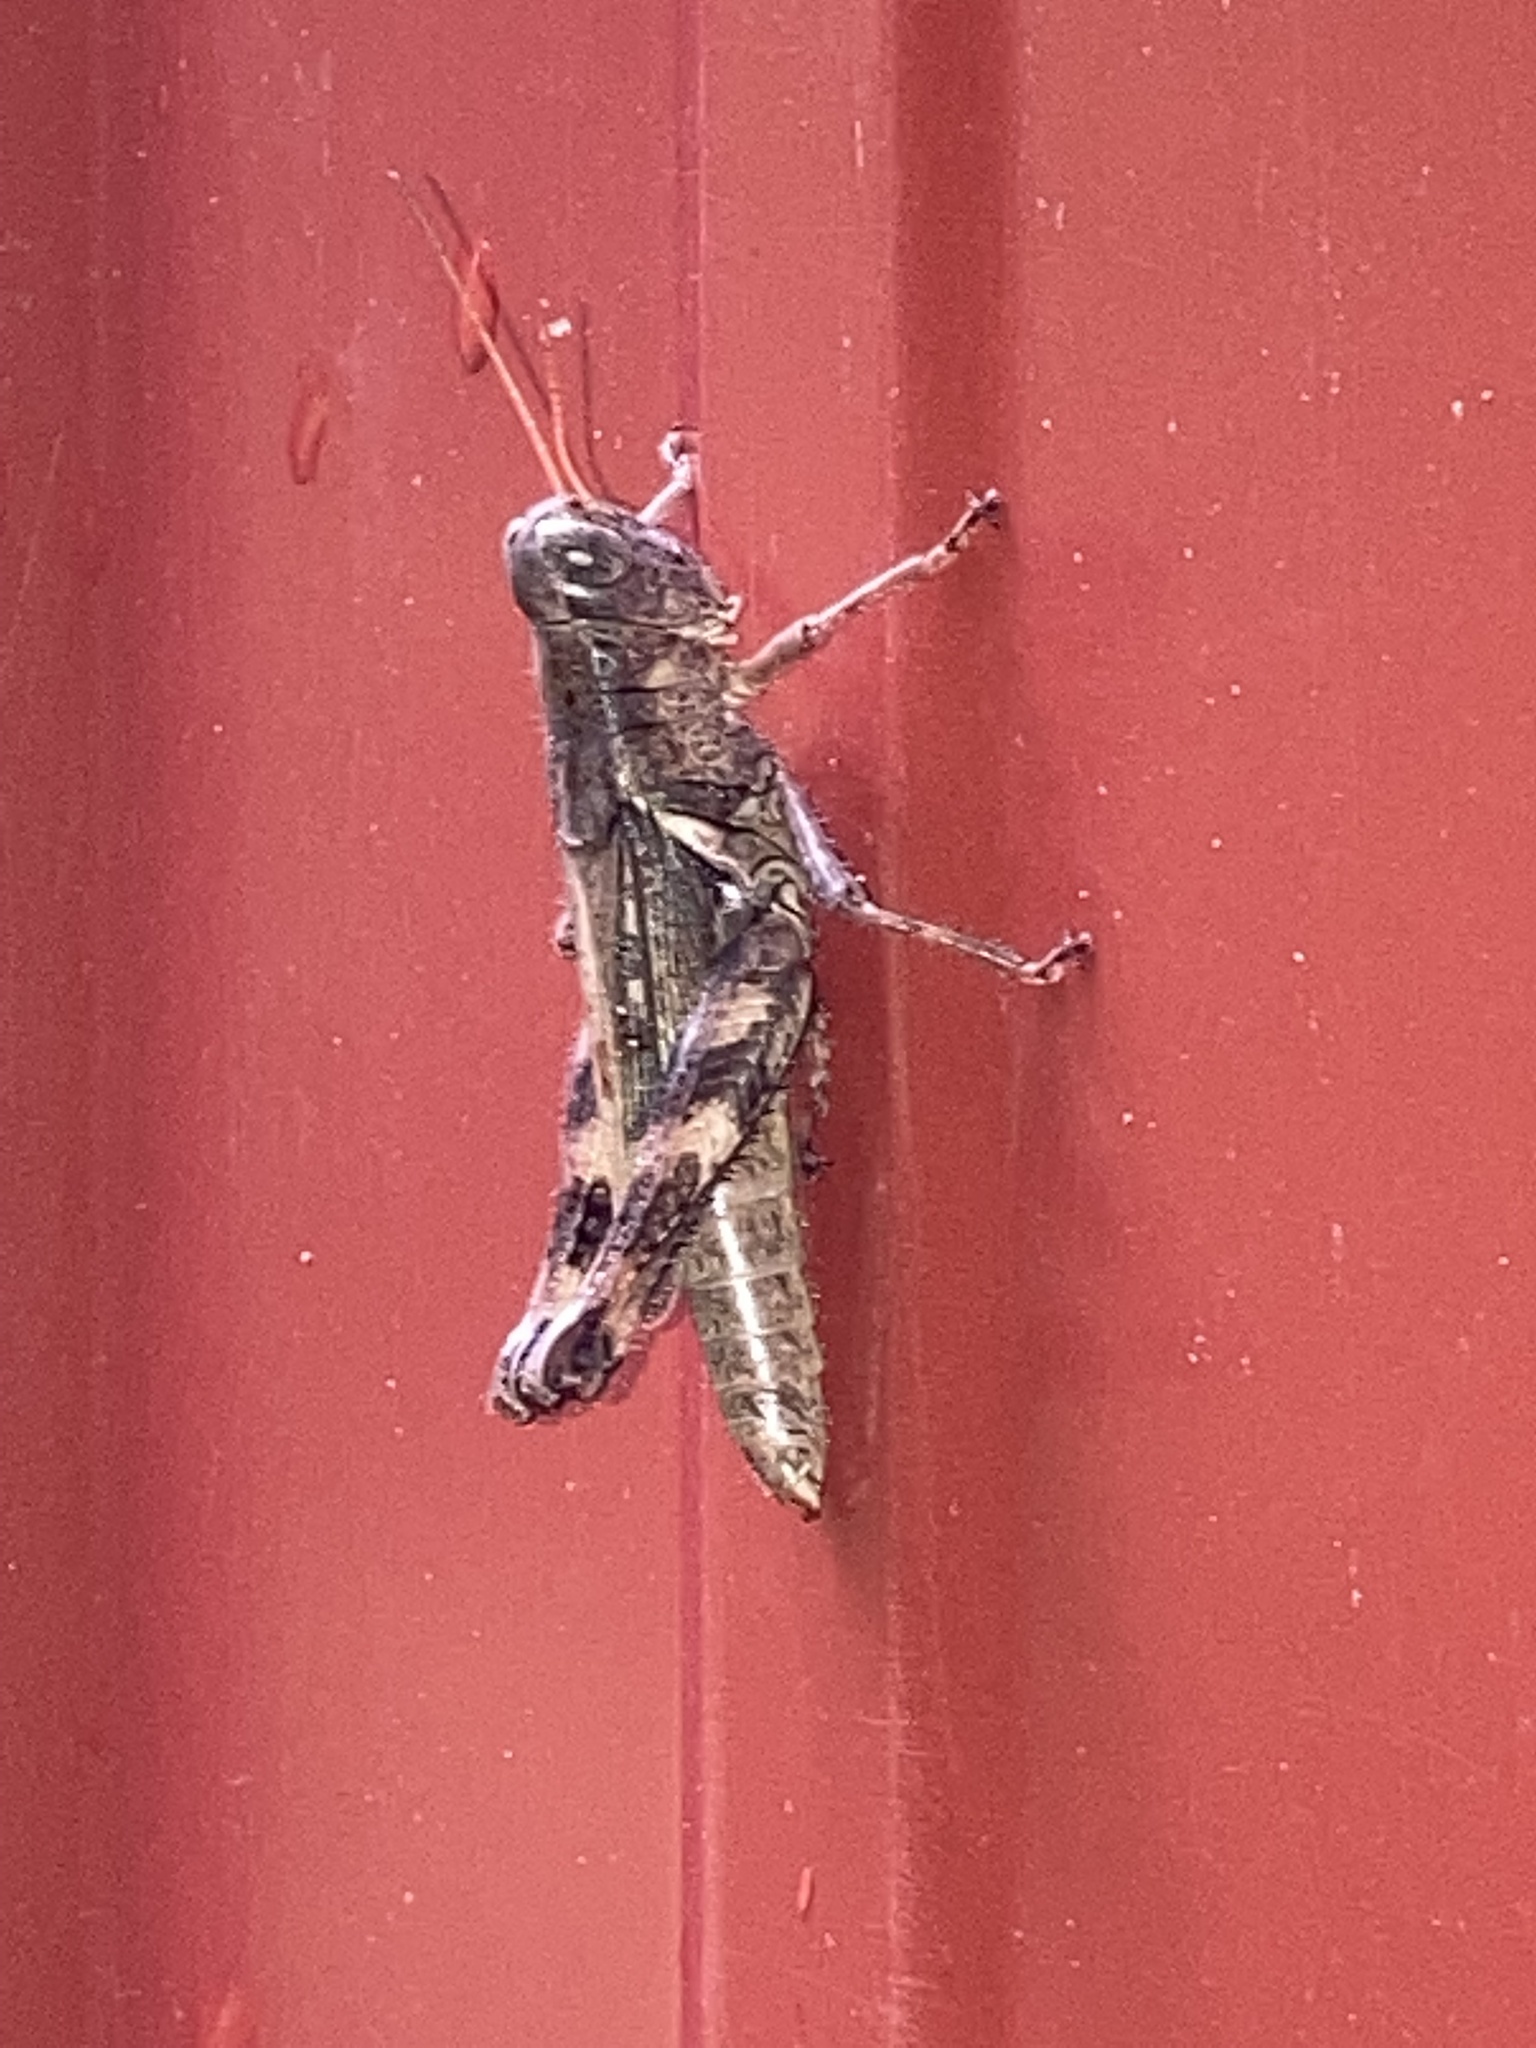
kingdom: Animalia
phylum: Arthropoda
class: Insecta
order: Orthoptera
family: Acrididae
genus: Melanoplus
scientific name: Melanoplus ponderosus
